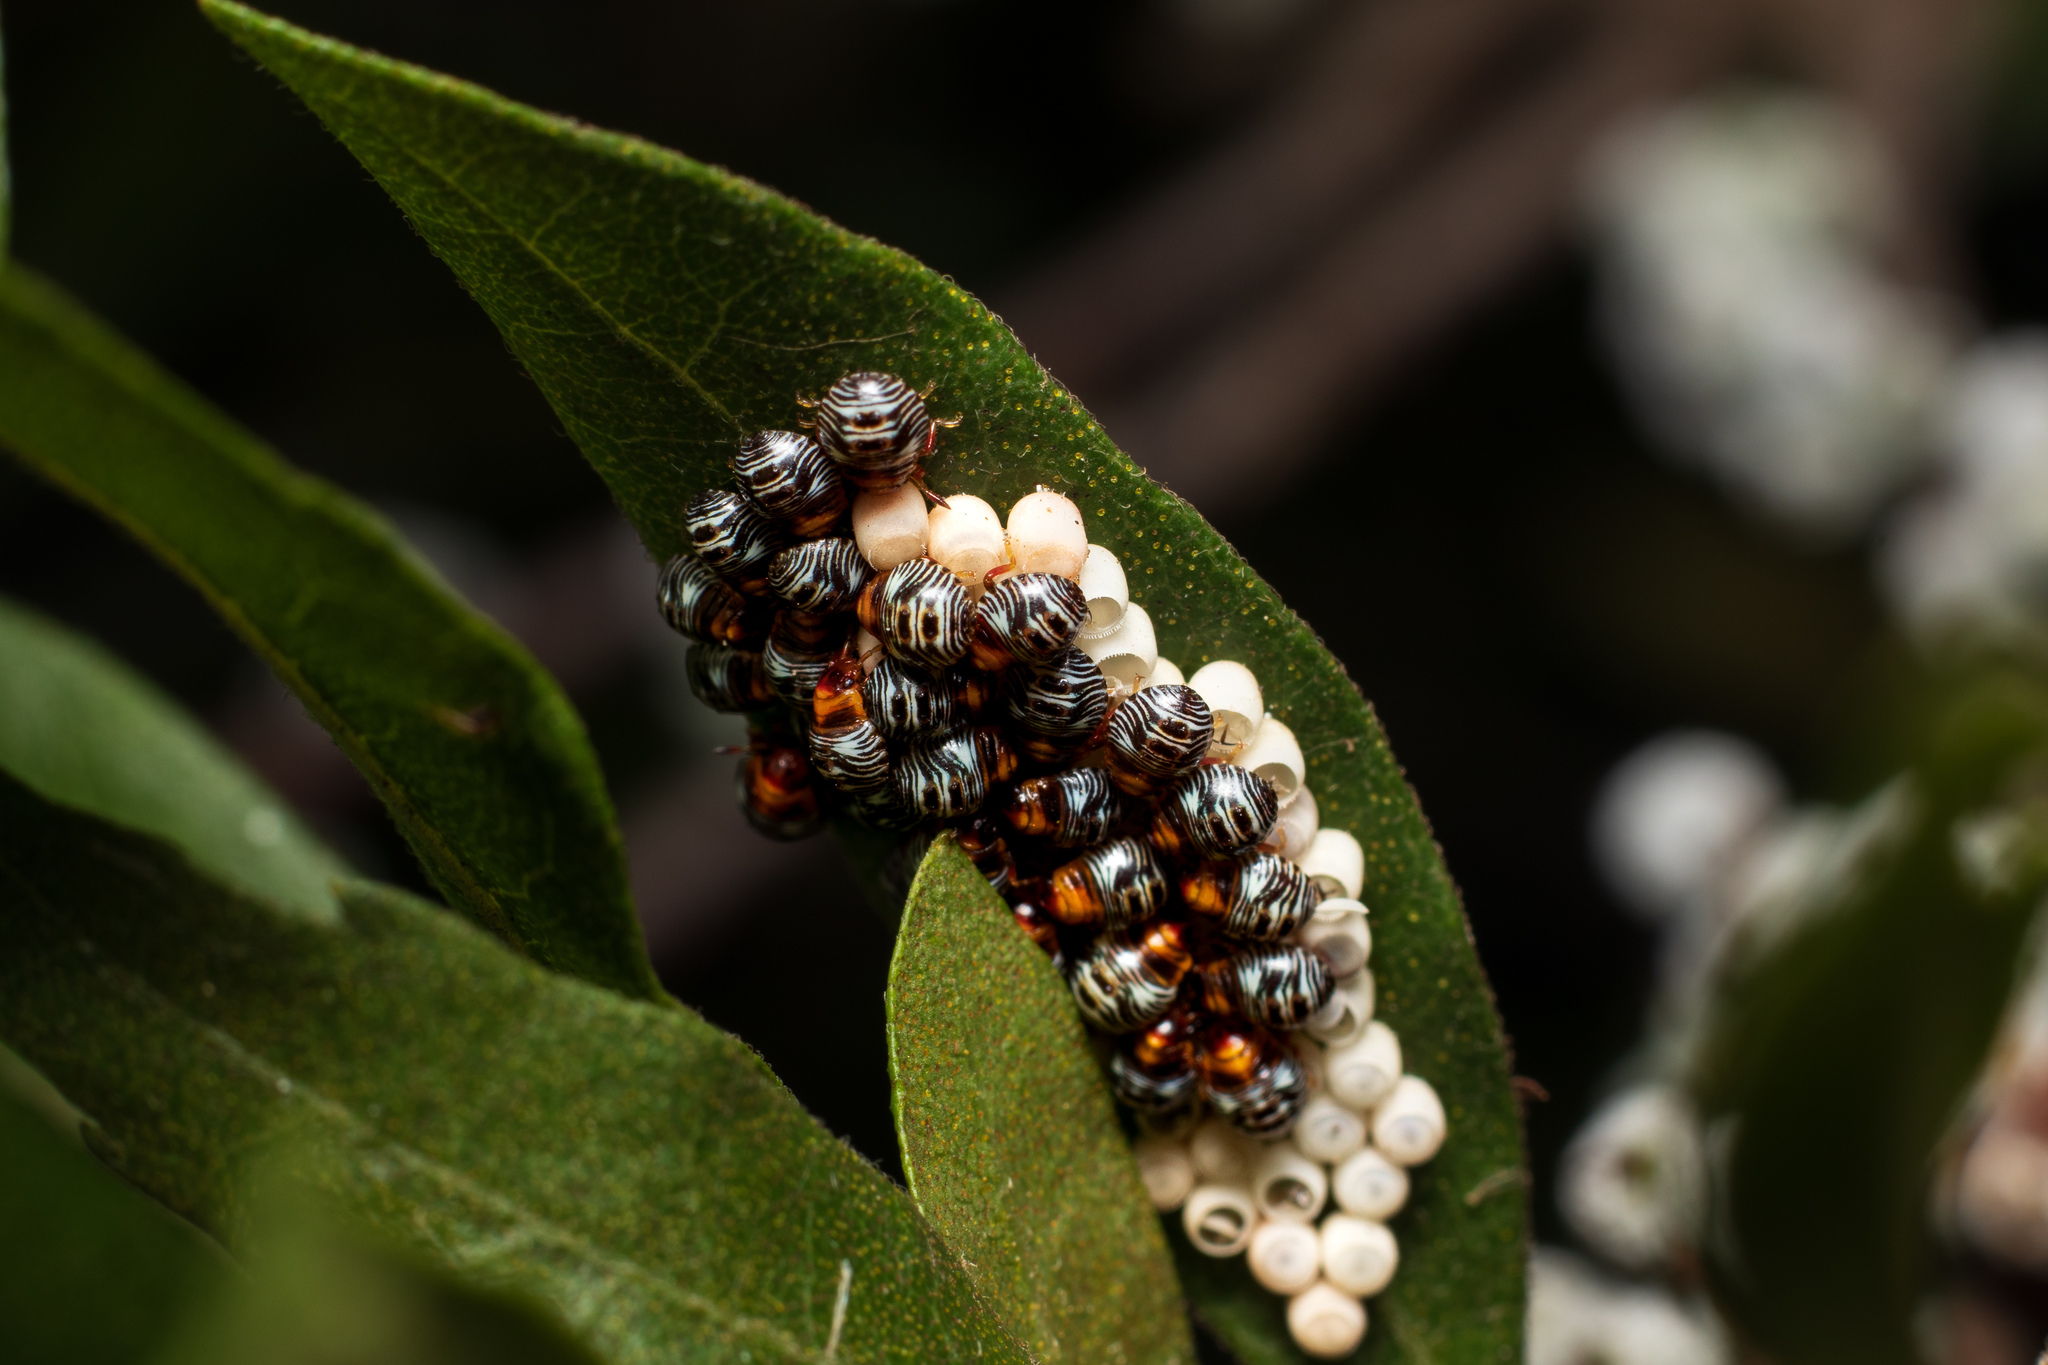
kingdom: Animalia
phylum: Arthropoda
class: Insecta
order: Hemiptera
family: Pentatomidae
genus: Chinavia
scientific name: Chinavia hilaris
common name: Green stink bug
